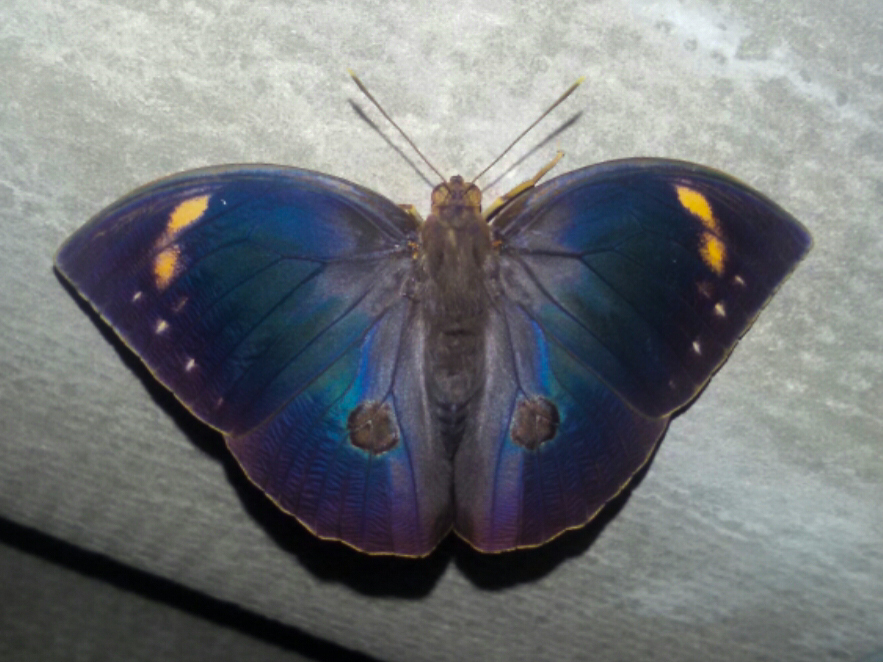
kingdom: Animalia
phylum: Arthropoda
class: Insecta
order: Lepidoptera
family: Nymphalidae
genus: Discophora
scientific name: Discophora timora
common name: Great duffer
